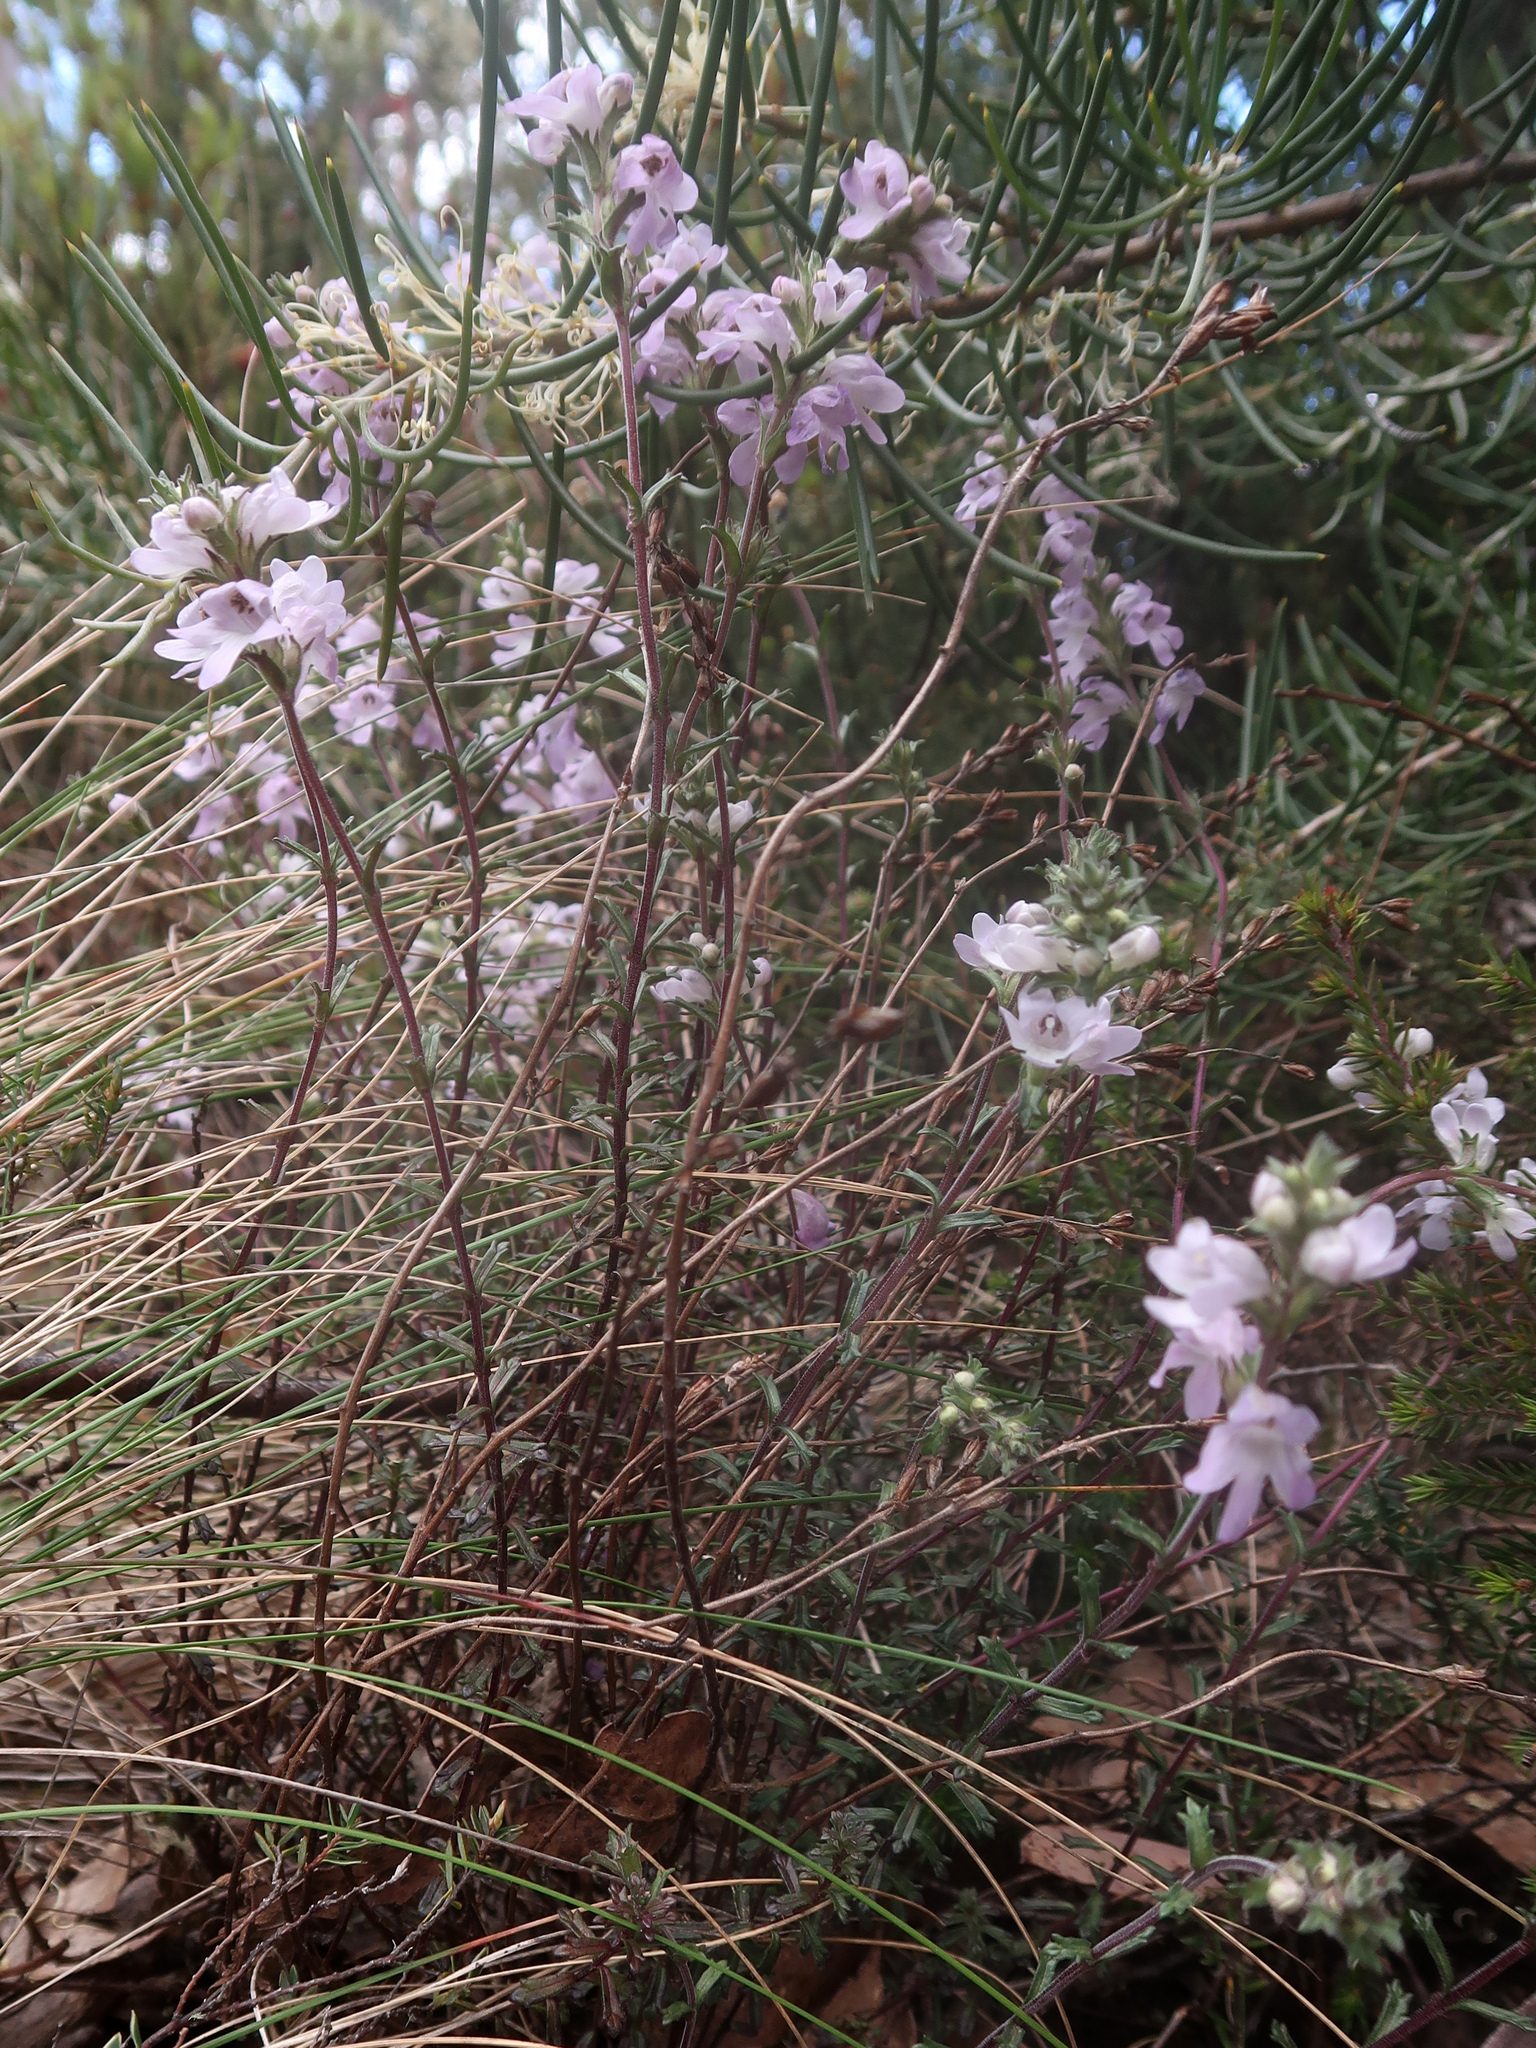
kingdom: Plantae
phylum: Tracheophyta
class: Magnoliopsida
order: Lamiales
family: Orobanchaceae
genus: Euphrasia
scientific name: Euphrasia collina
